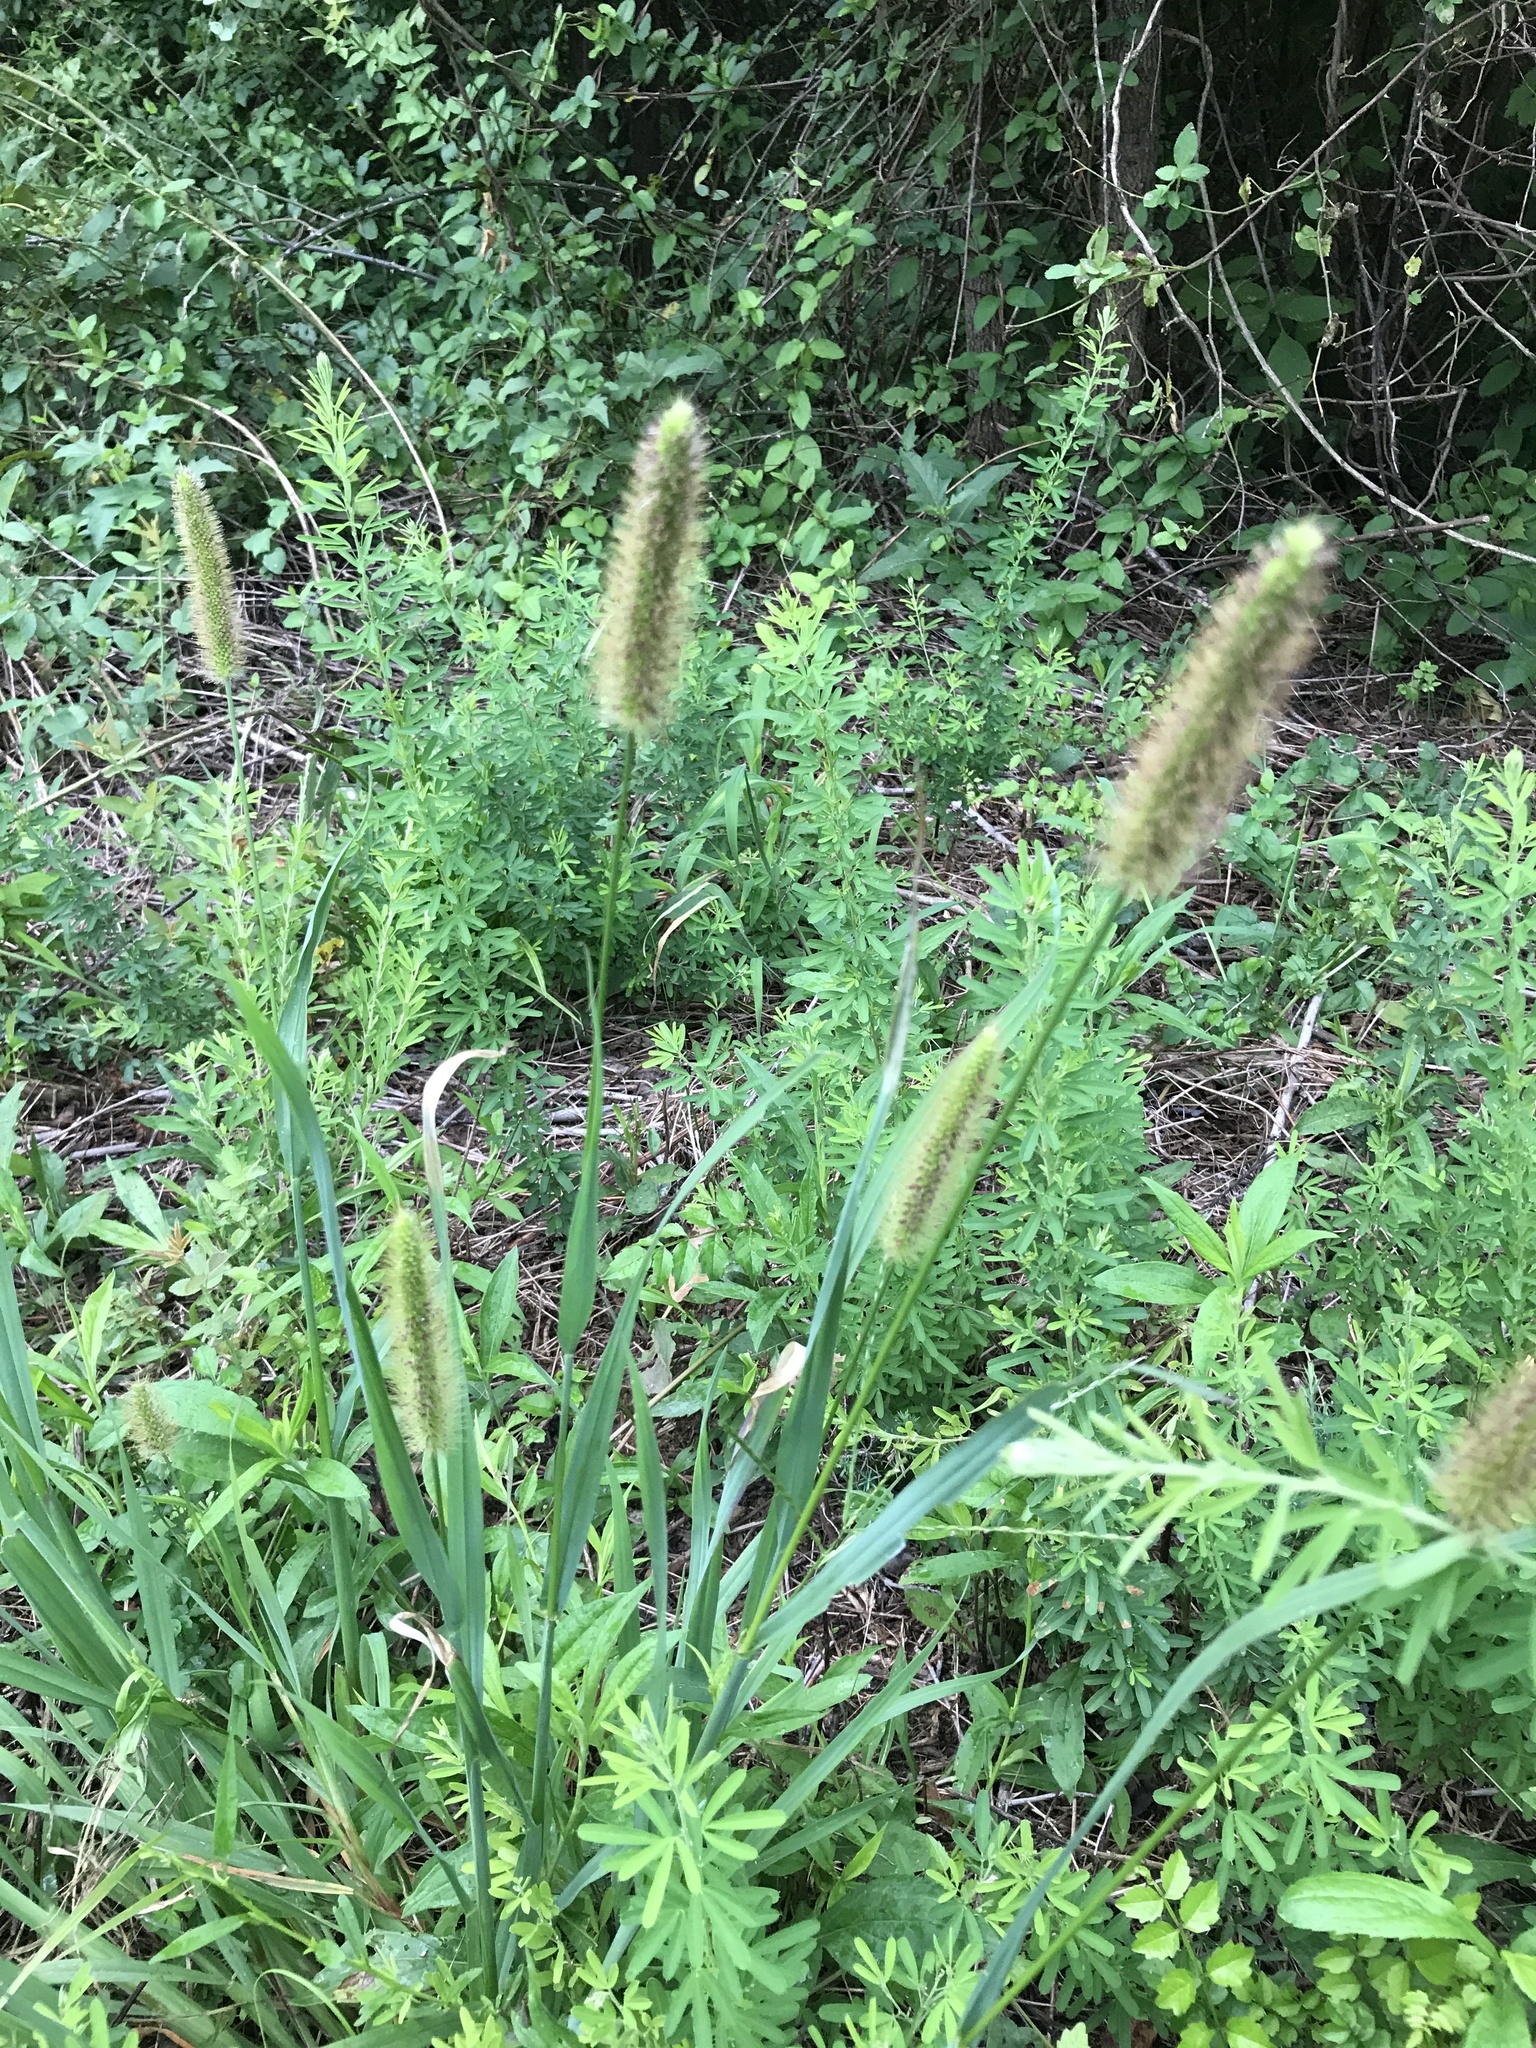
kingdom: Plantae
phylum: Tracheophyta
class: Liliopsida
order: Poales
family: Poaceae
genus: Setaria
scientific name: Setaria parviflora
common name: Knotroot bristle-grass
